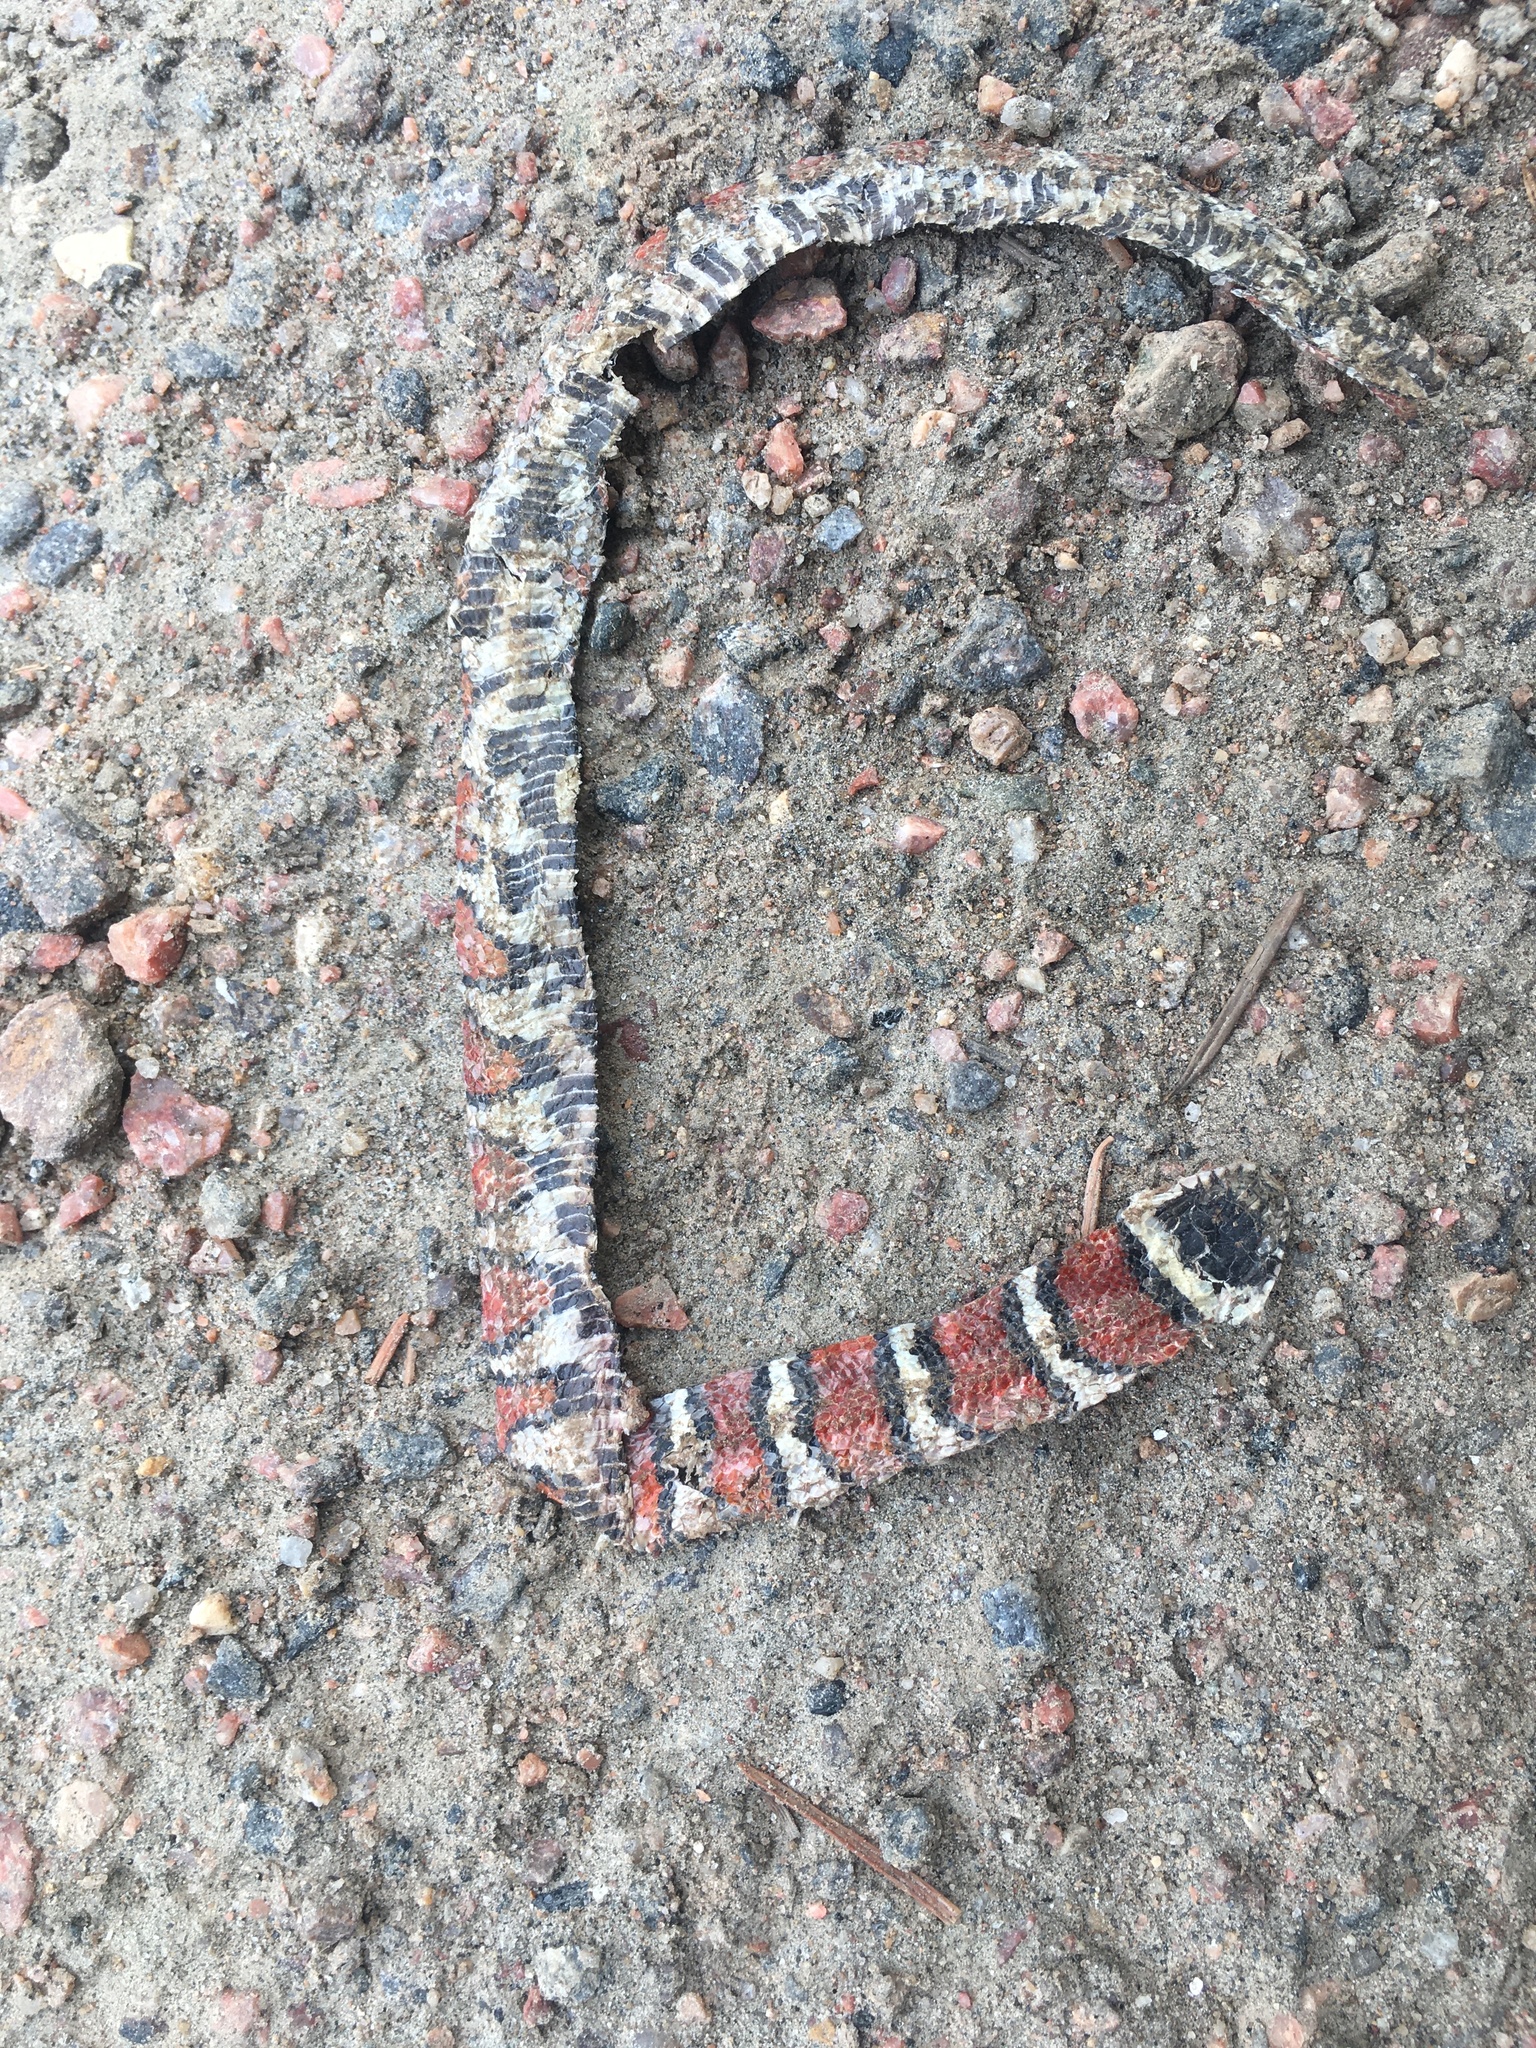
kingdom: Animalia
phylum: Chordata
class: Squamata
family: Colubridae
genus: Lampropeltis
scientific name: Lampropeltis gentilis
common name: Central plains milksnake
